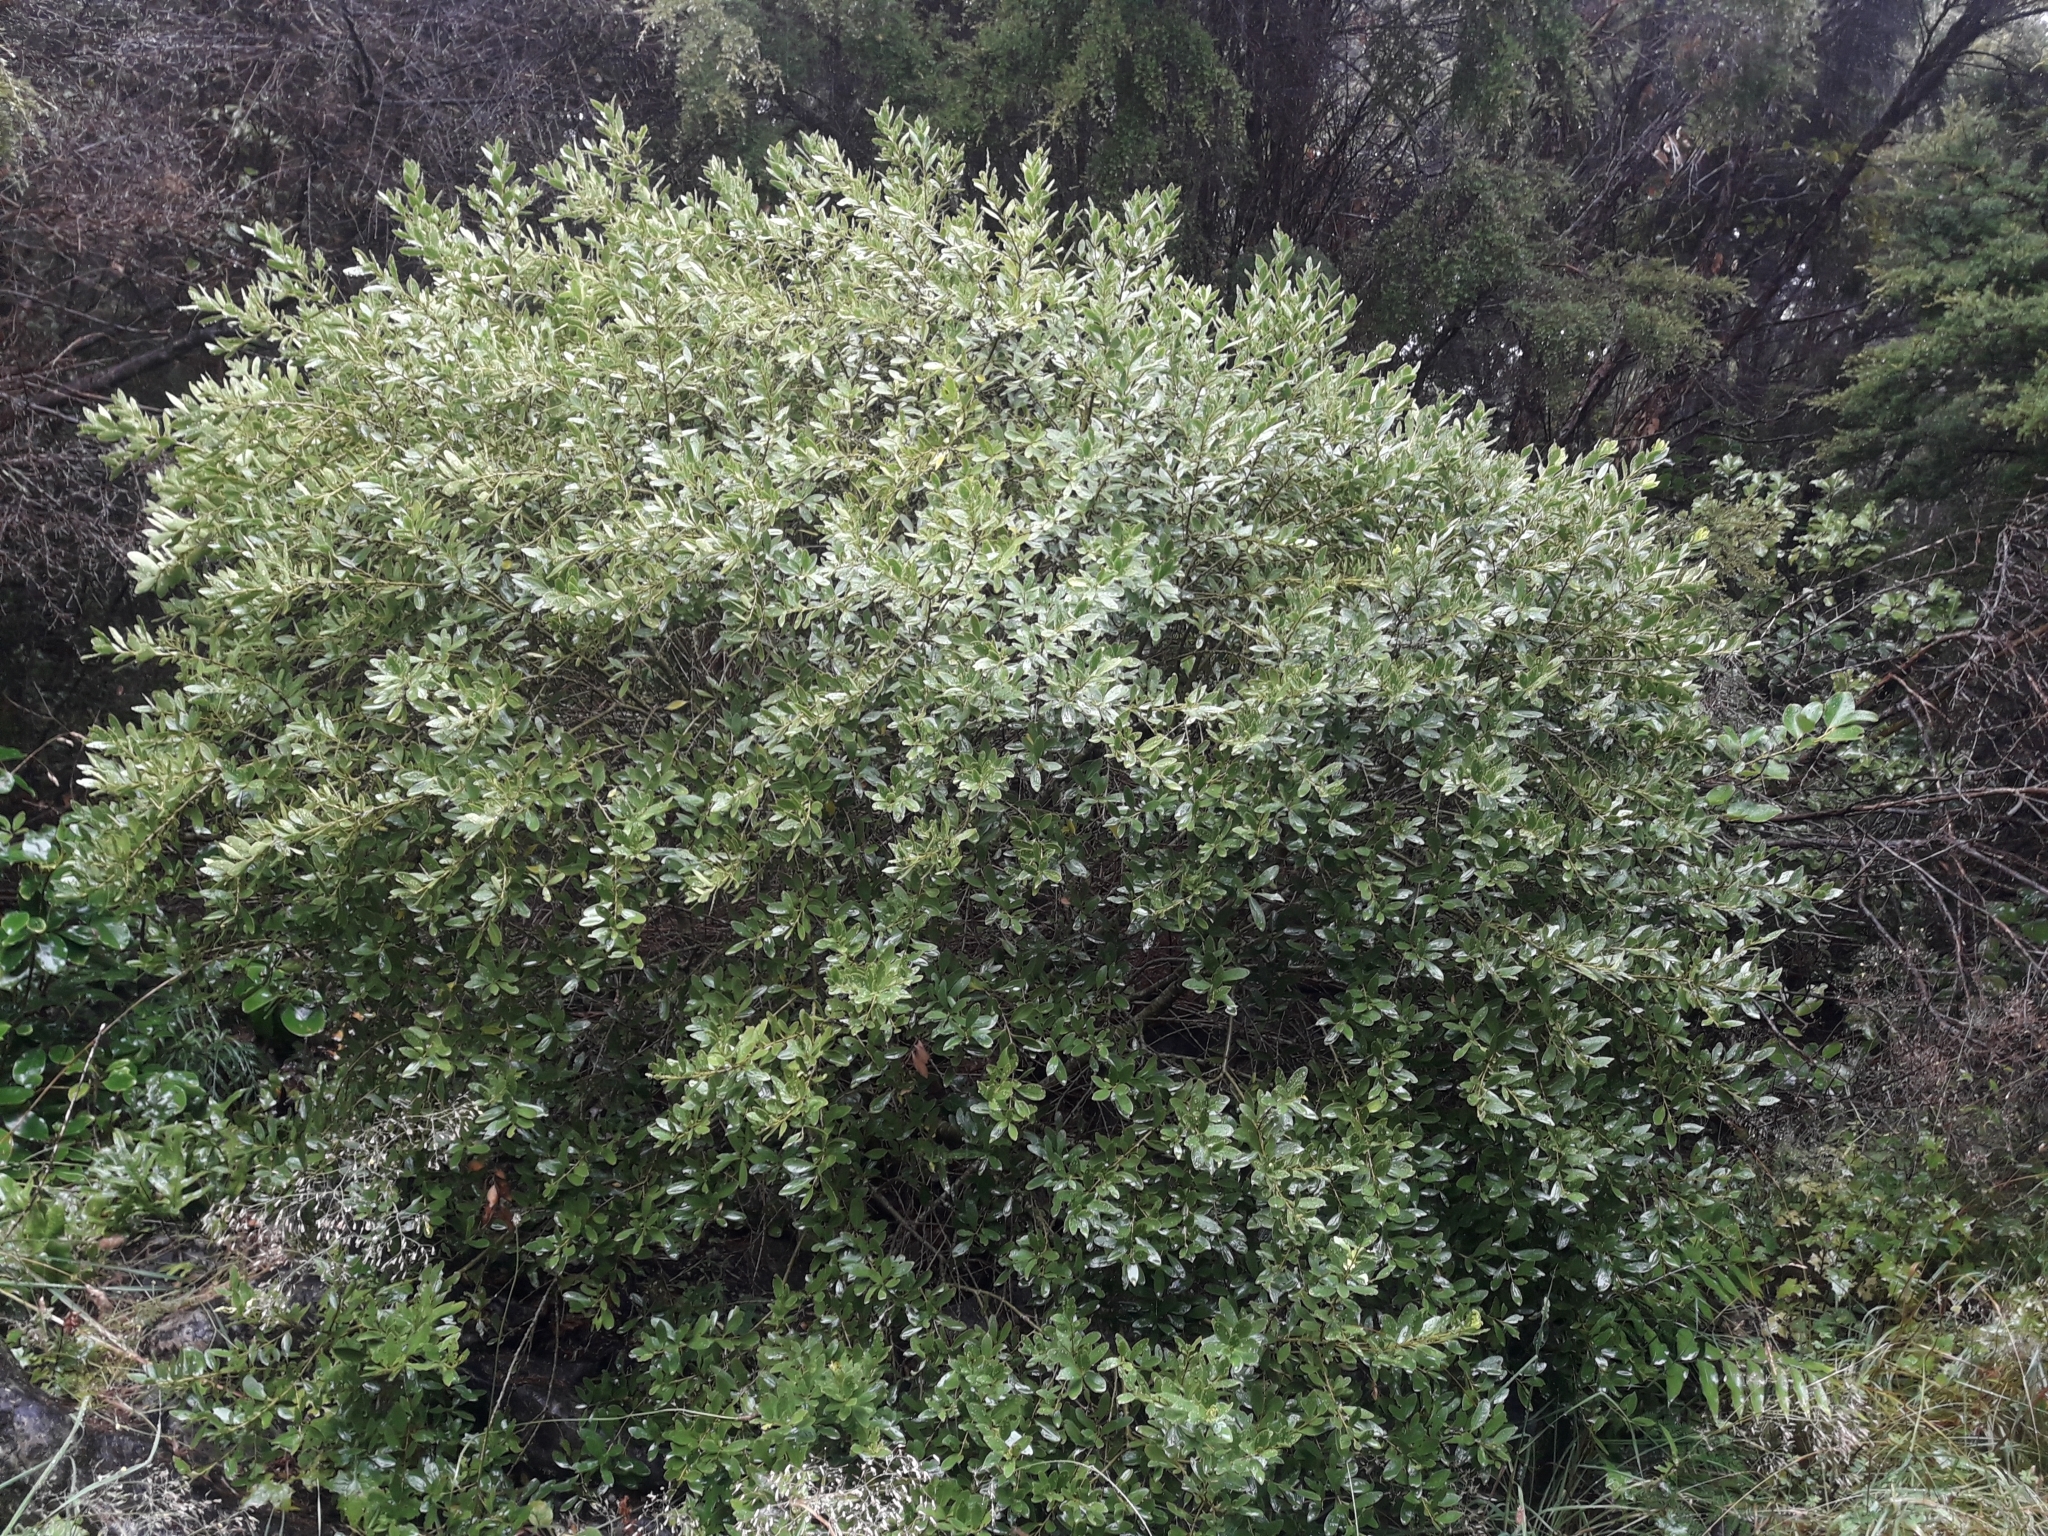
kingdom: Plantae
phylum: Tracheophyta
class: Magnoliopsida
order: Malpighiales
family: Violaceae
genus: Melicytus
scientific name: Melicytus obovatus
